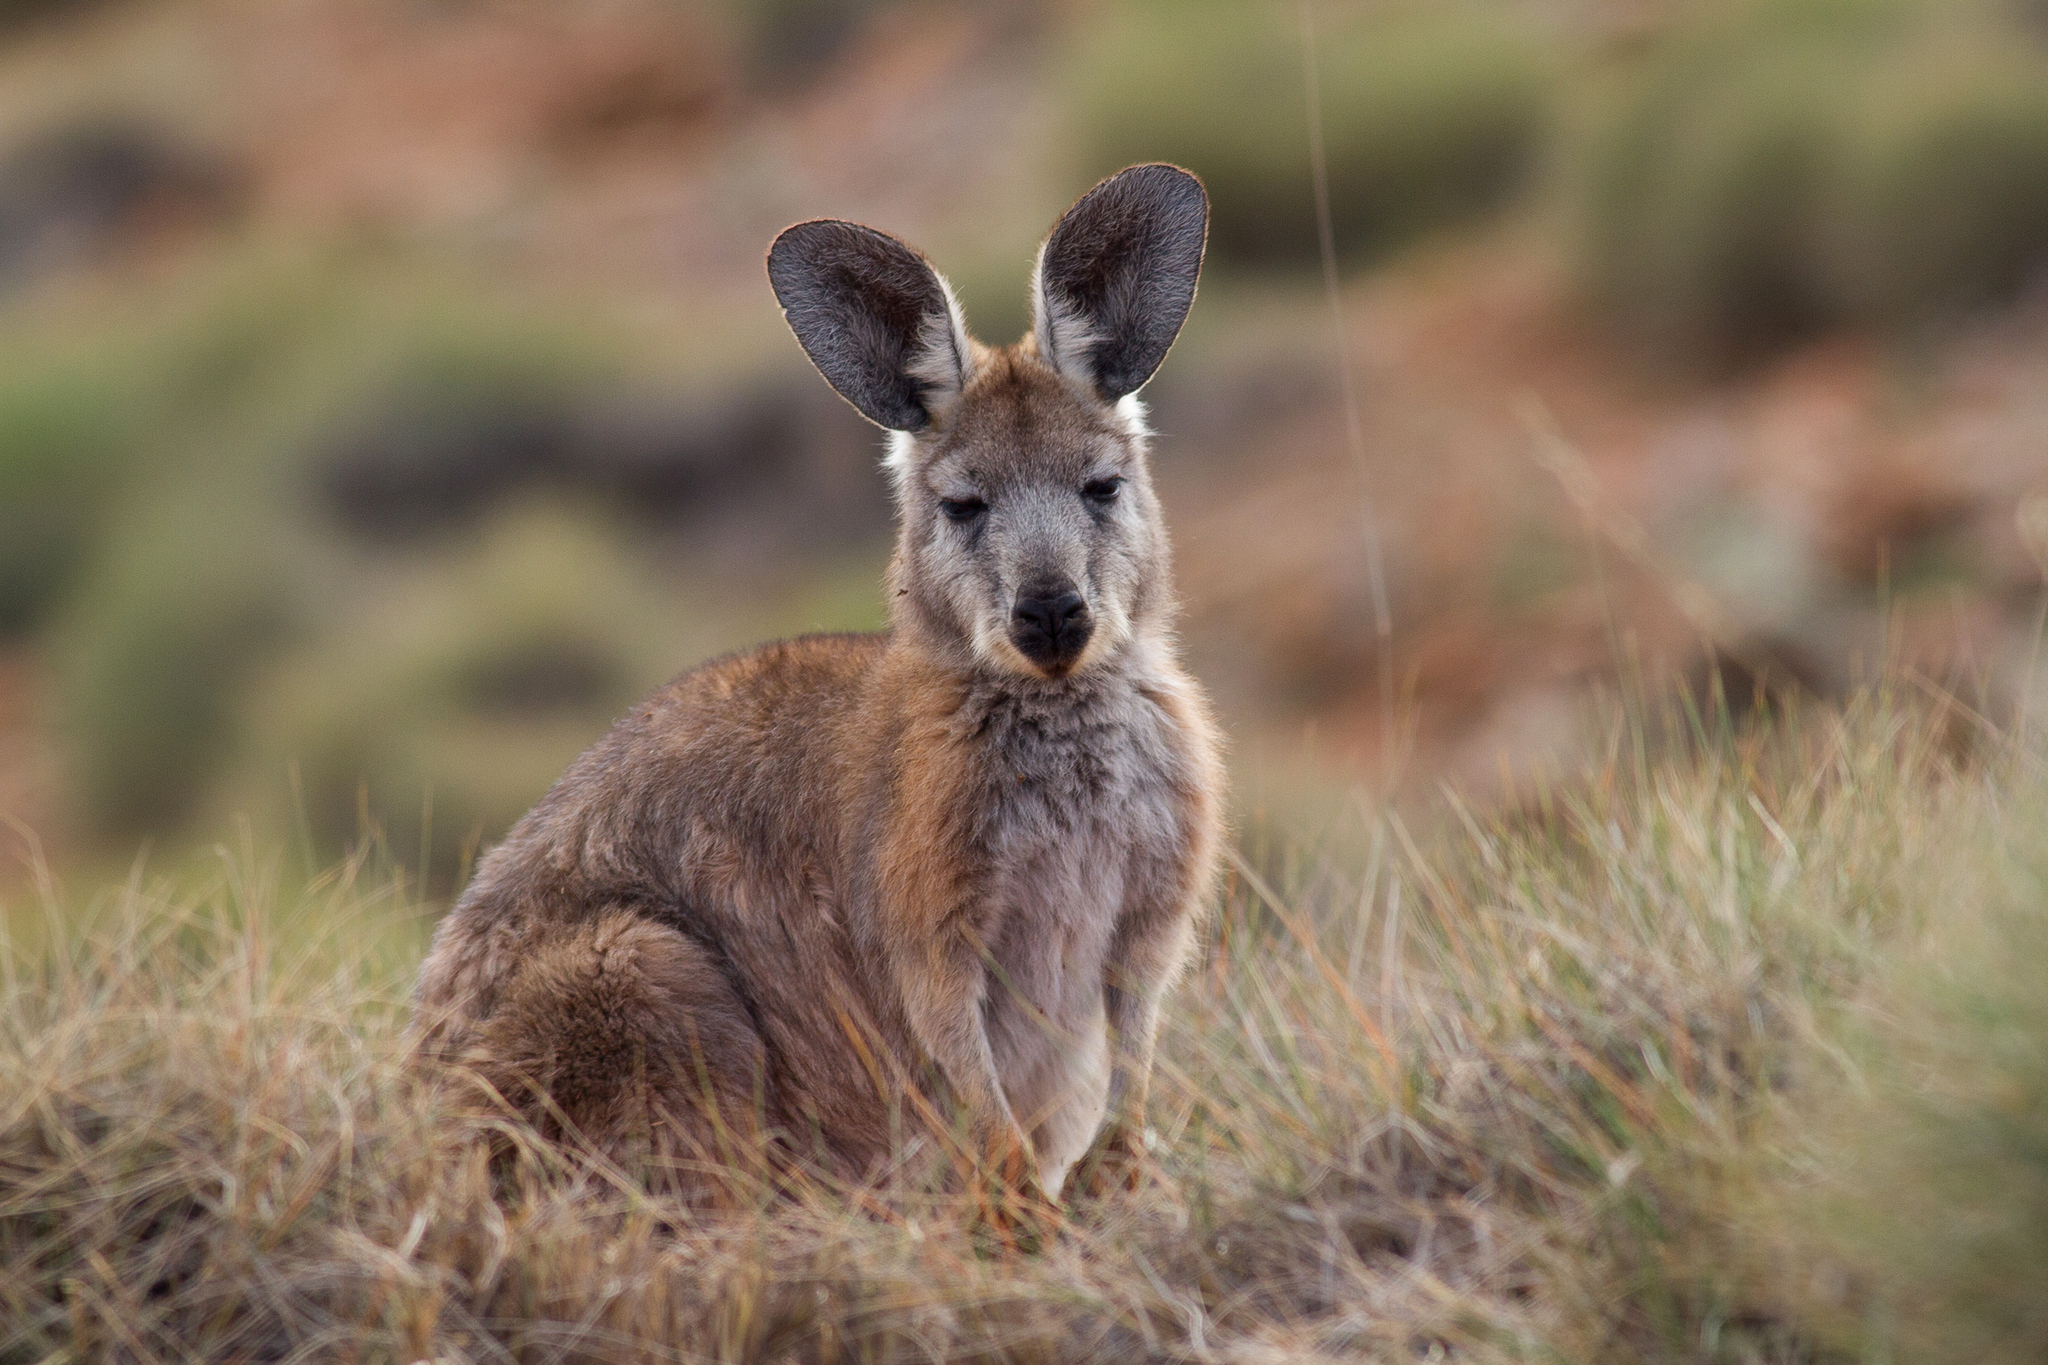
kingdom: Animalia
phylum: Chordata
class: Mammalia
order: Diprotodontia
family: Macropodidae
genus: Macropus
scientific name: Macropus robustus
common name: Eastern wallaroo
